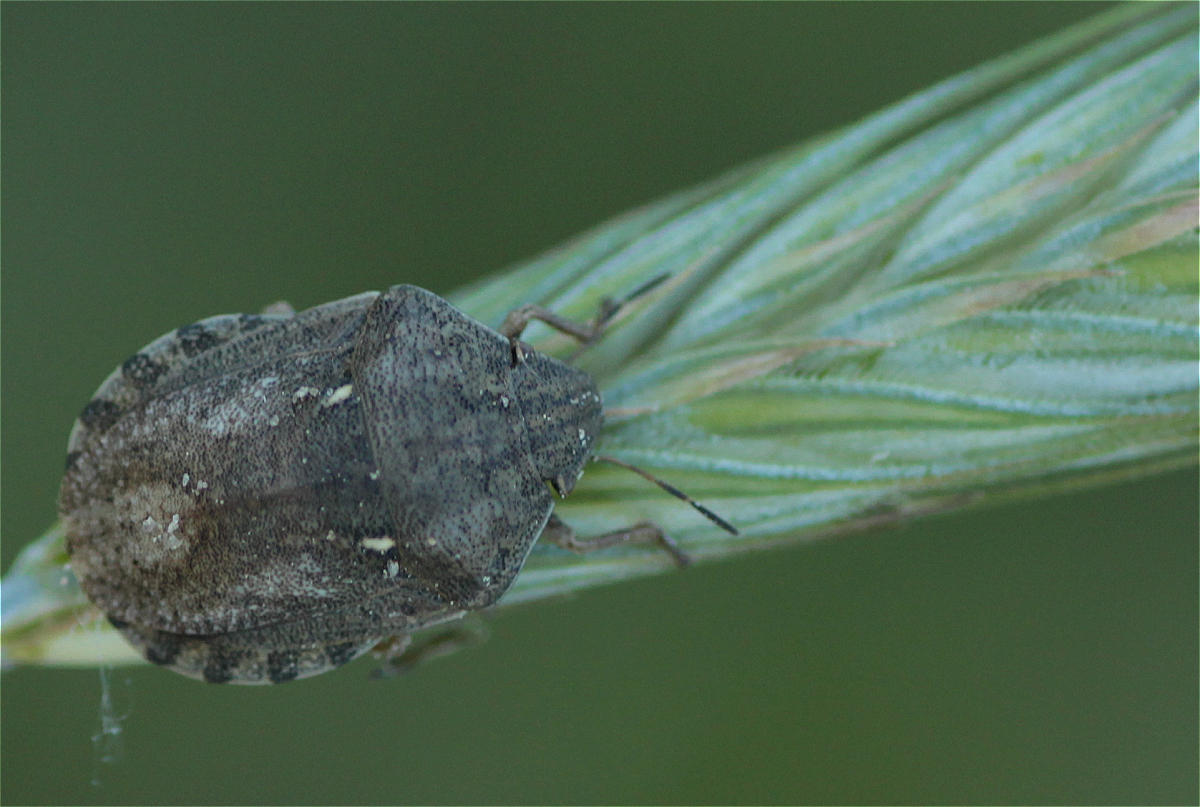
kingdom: Animalia
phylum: Arthropoda
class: Insecta
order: Hemiptera
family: Scutelleridae
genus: Eurygaster
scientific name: Eurygaster maura
